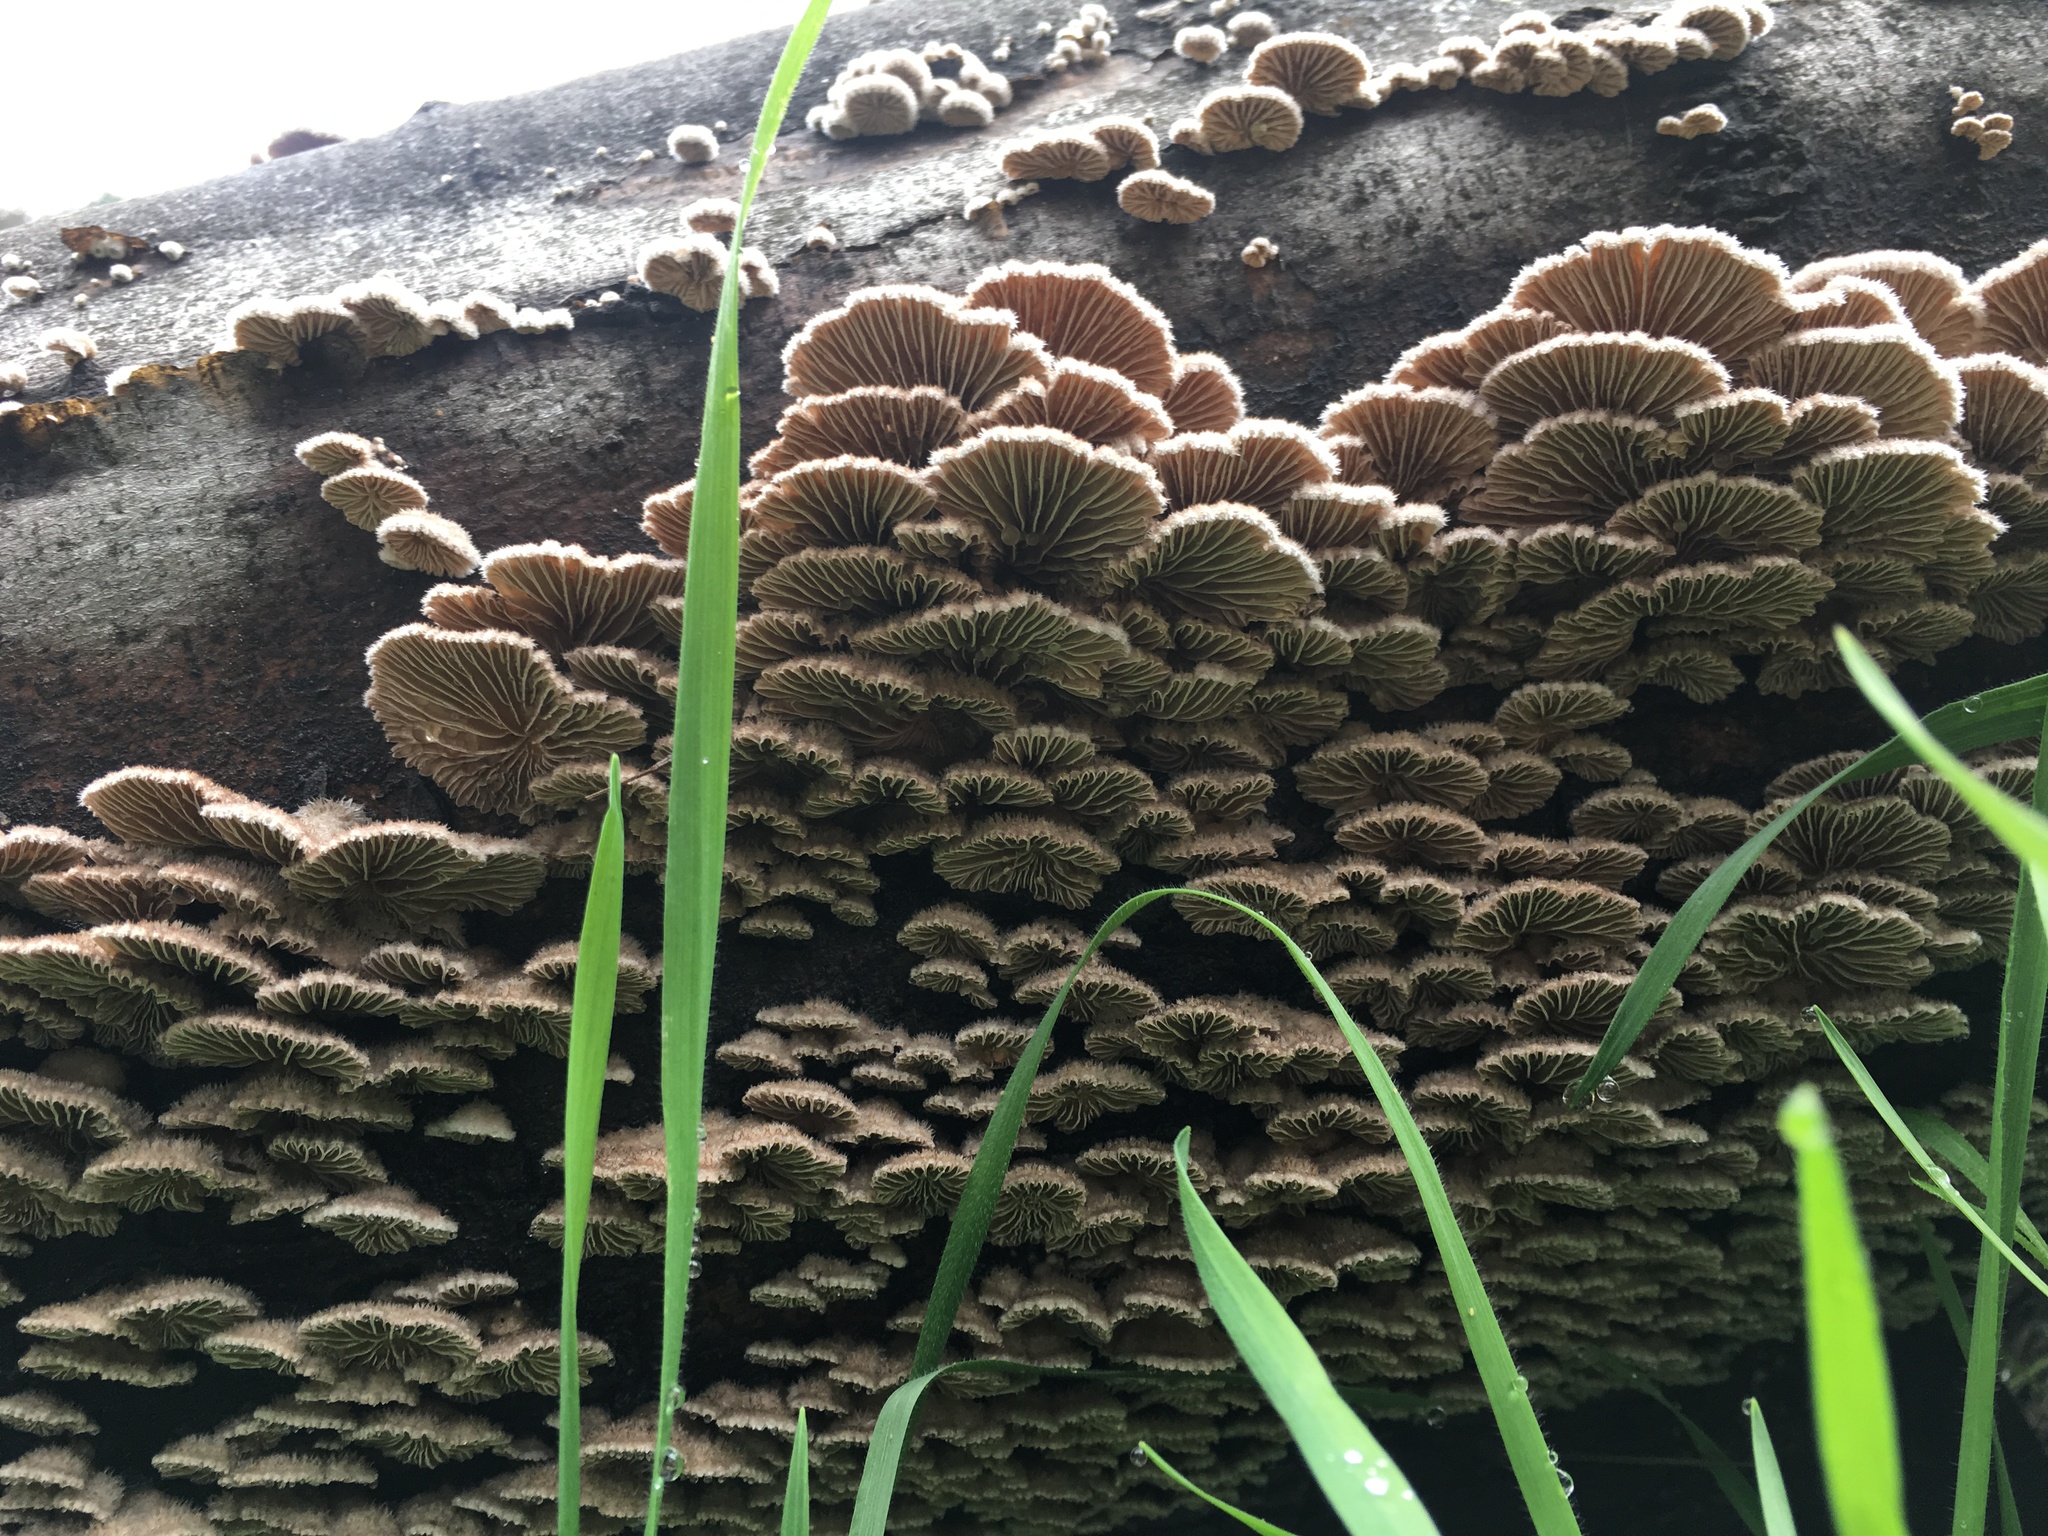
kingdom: Fungi
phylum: Basidiomycota
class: Agaricomycetes
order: Agaricales
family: Schizophyllaceae
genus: Schizophyllum
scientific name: Schizophyllum commune
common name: Common porecrust
